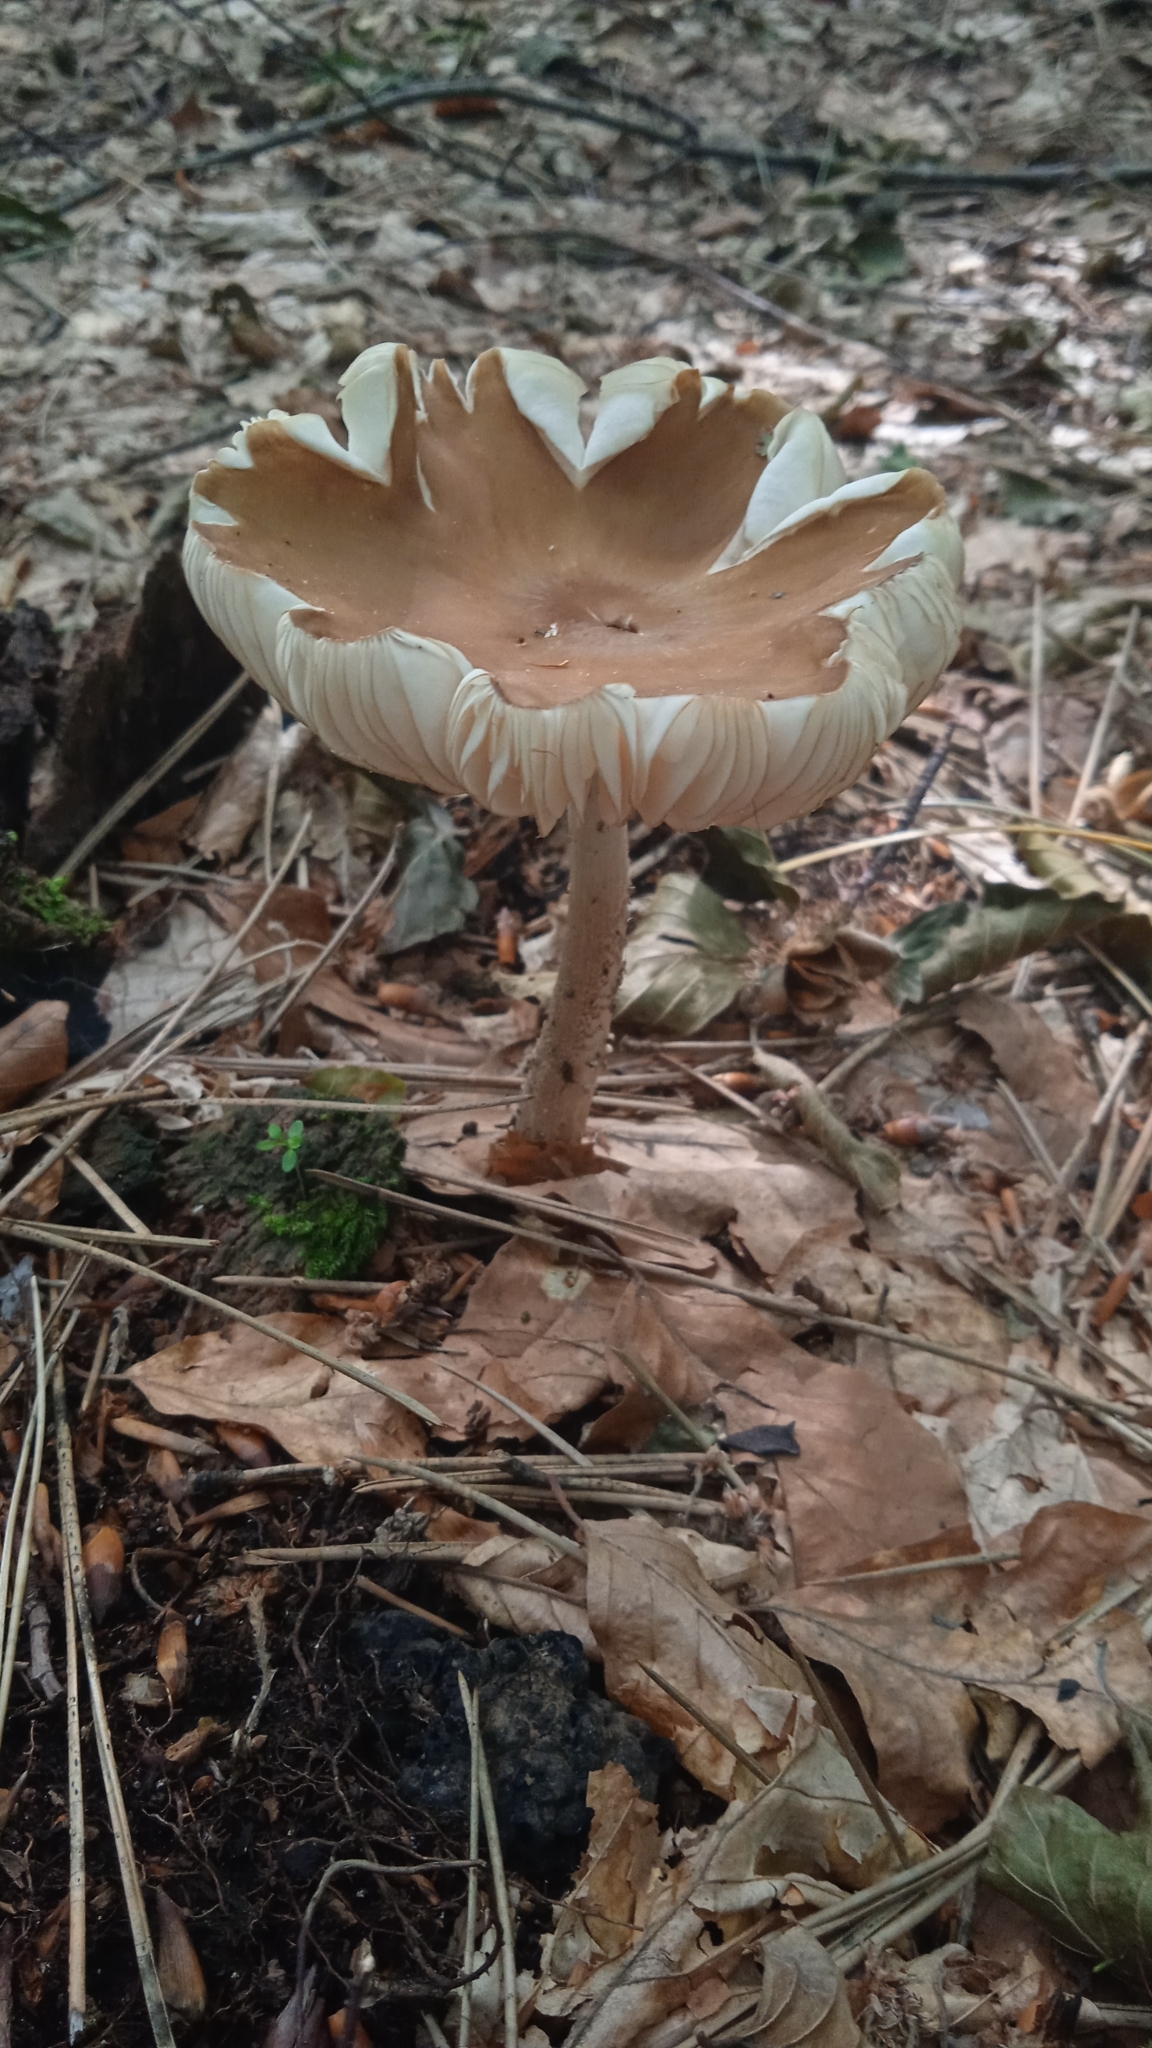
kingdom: Fungi
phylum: Basidiomycota
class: Agaricomycetes
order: Agaricales
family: Physalacriaceae
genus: Hymenopellis
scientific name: Hymenopellis radicata
